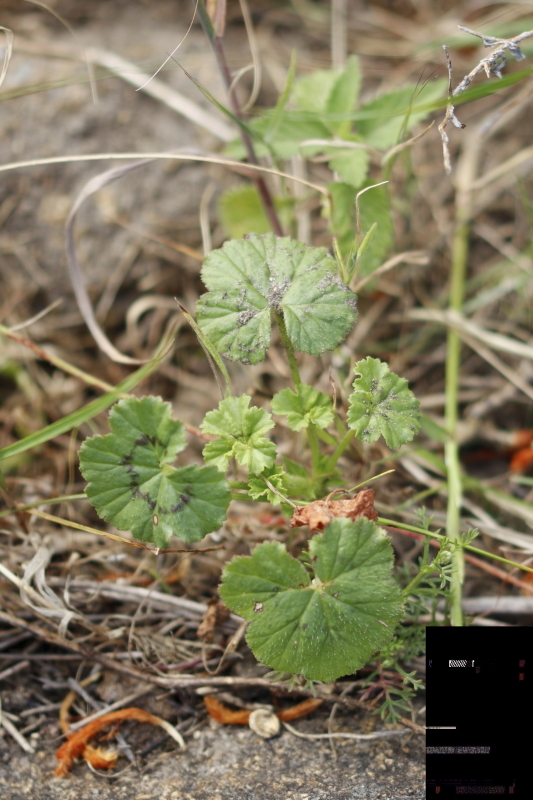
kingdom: Plantae
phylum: Tracheophyta
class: Magnoliopsida
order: Geraniales
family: Geraniaceae
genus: Pelargonium
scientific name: Pelargonium elongatum
